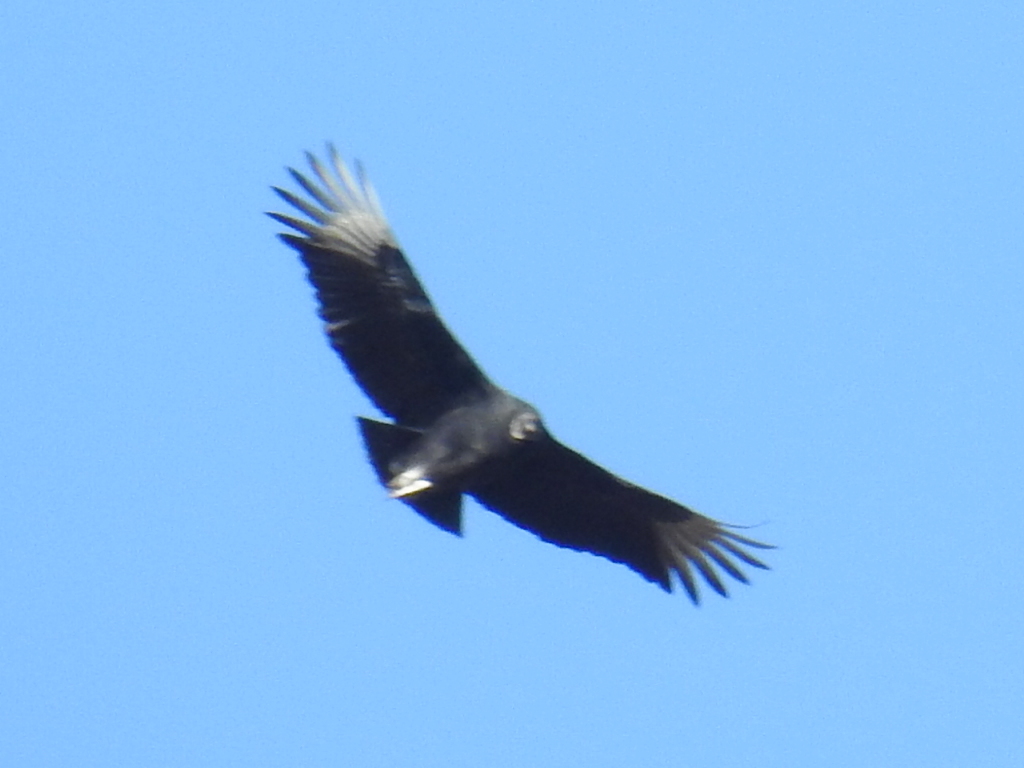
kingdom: Animalia
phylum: Chordata
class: Aves
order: Accipitriformes
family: Cathartidae
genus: Coragyps
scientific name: Coragyps atratus
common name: Black vulture
